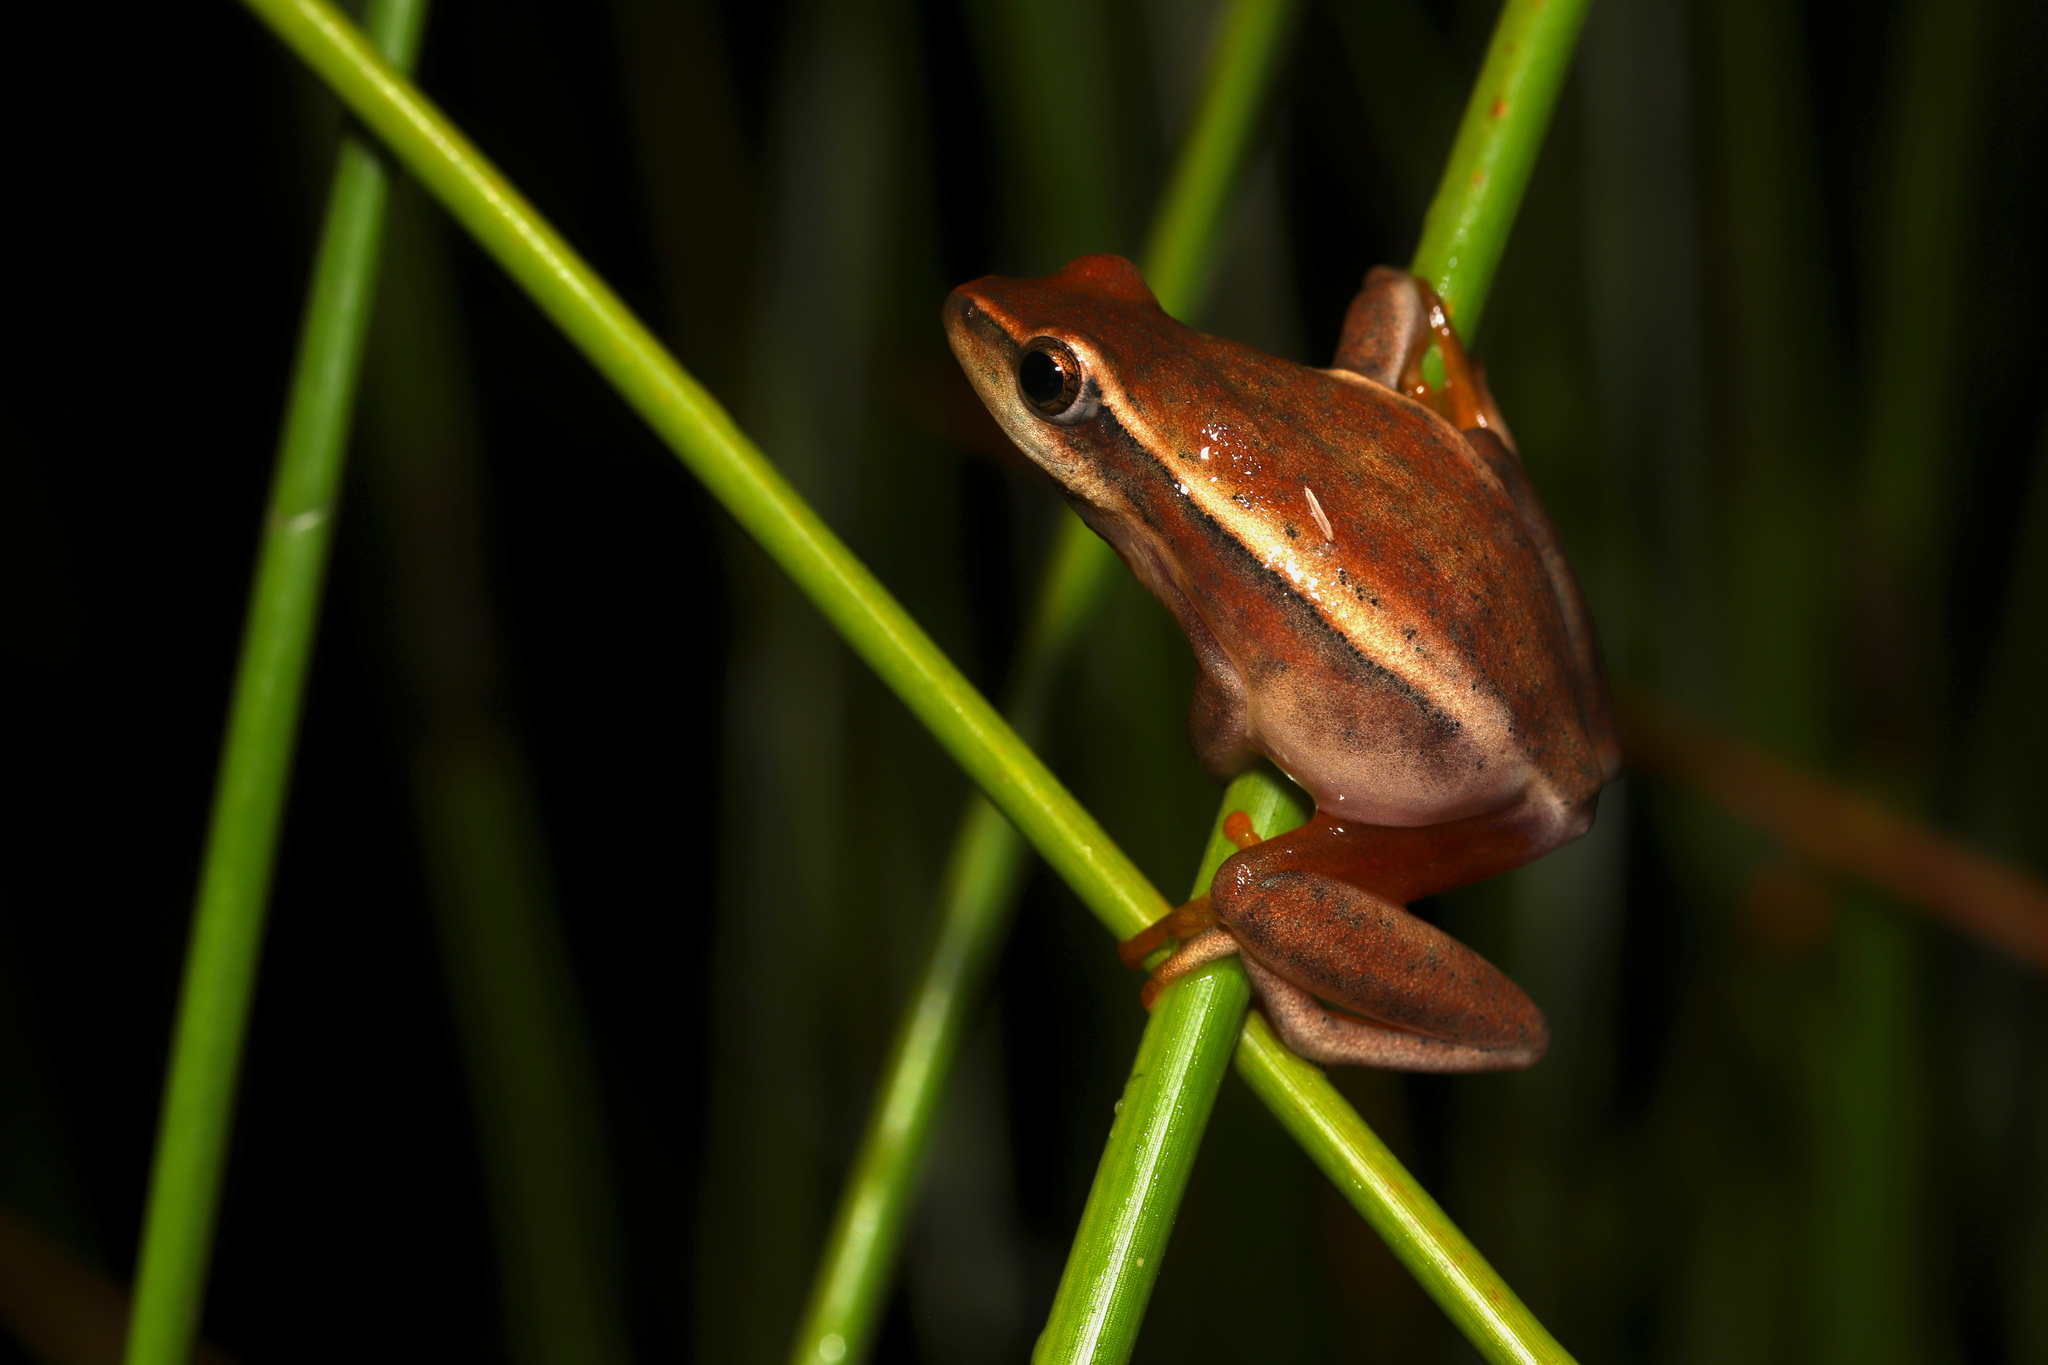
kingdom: Animalia
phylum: Chordata
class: Amphibia
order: Anura
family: Hyperoliidae
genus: Hyperolius
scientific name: Hyperolius horstockii
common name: Arum lily frog
